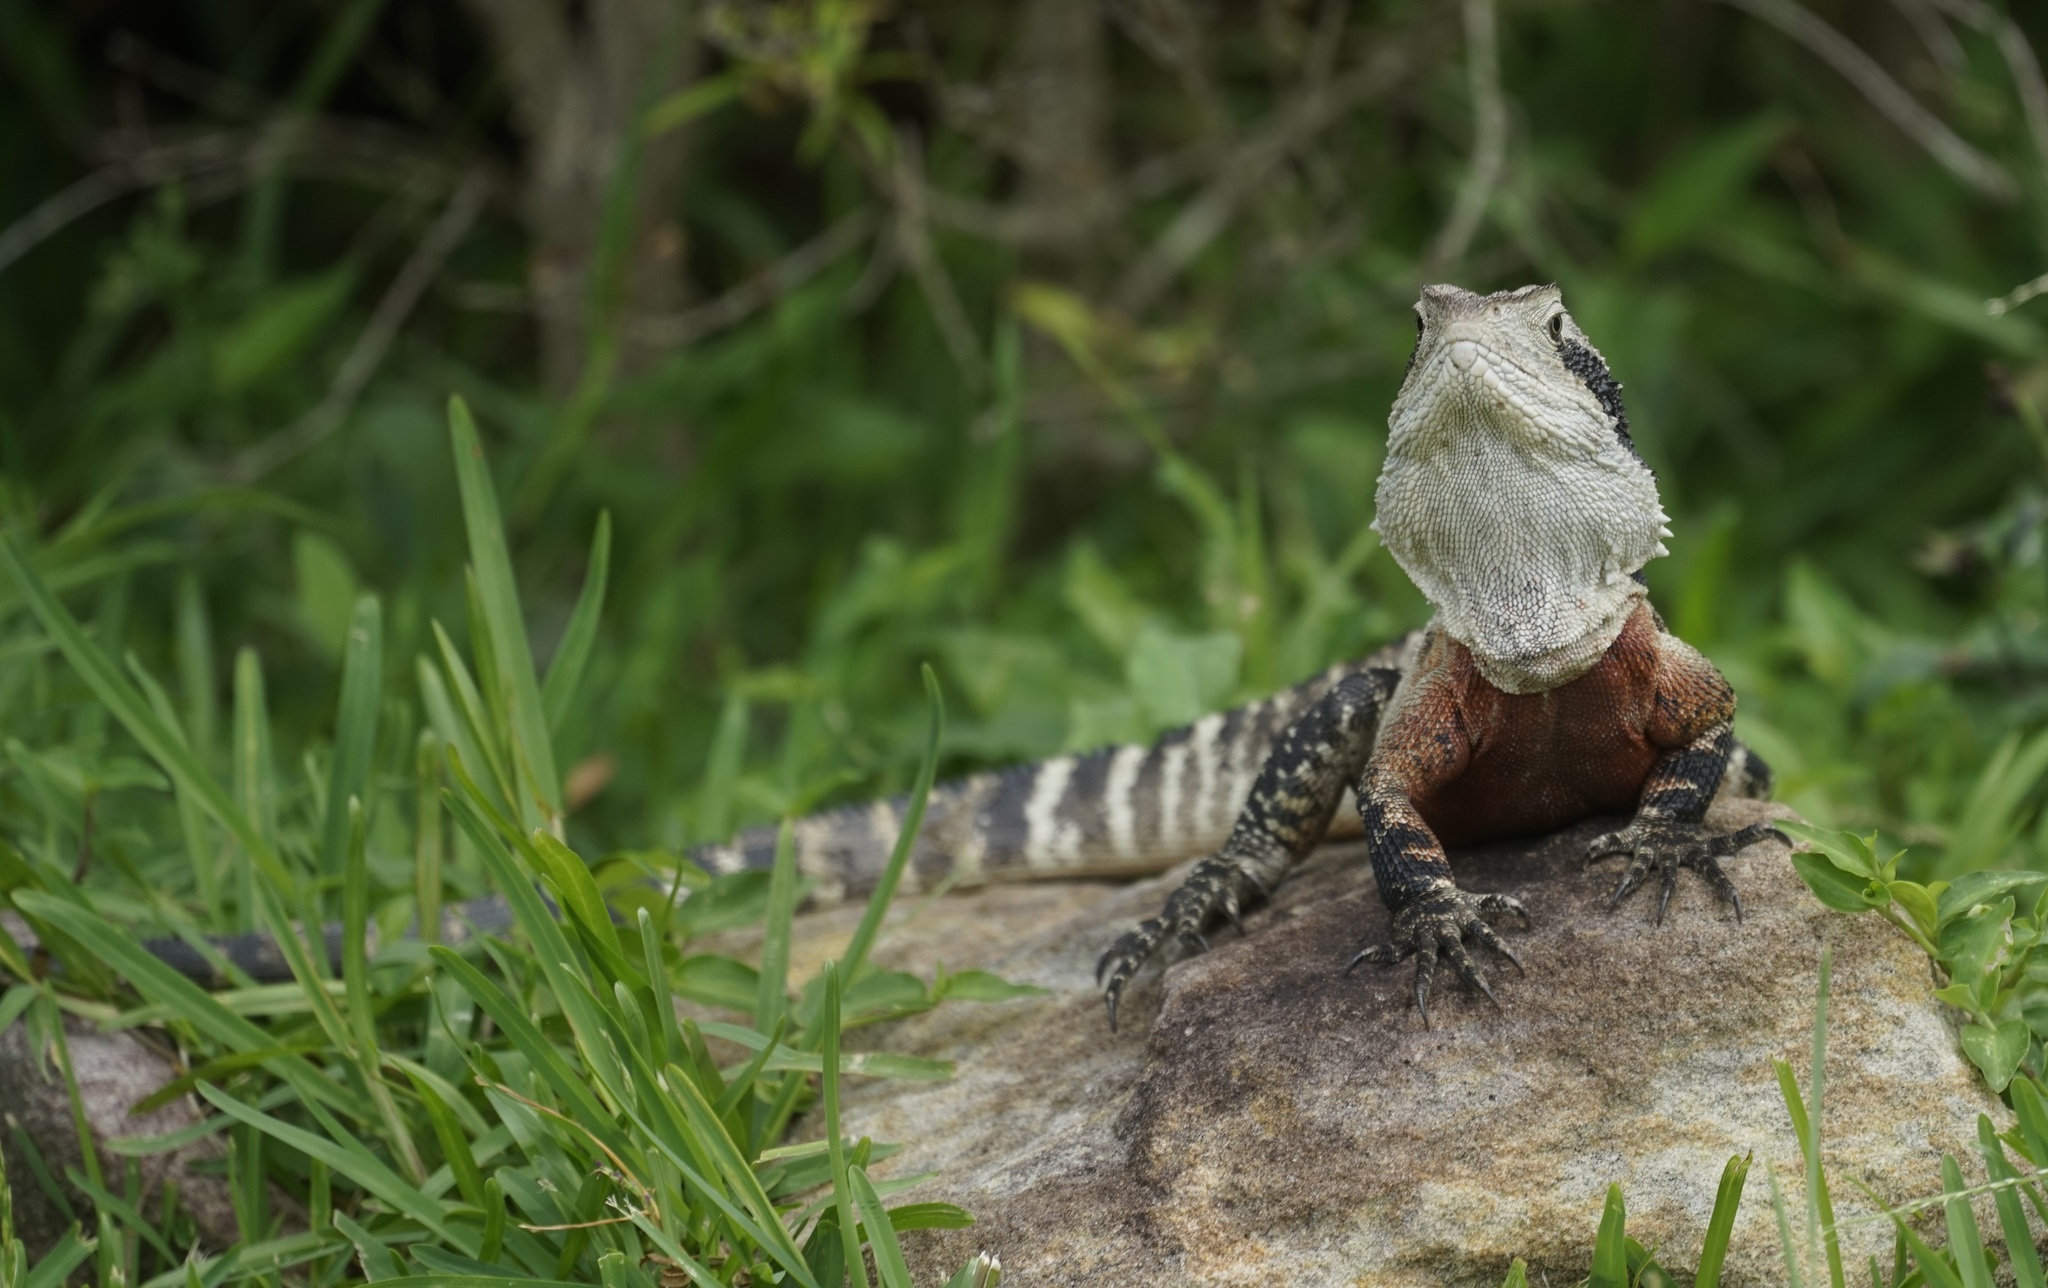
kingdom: Animalia
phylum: Chordata
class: Squamata
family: Agamidae
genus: Intellagama
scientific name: Intellagama lesueurii
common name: Eastern water dragon
